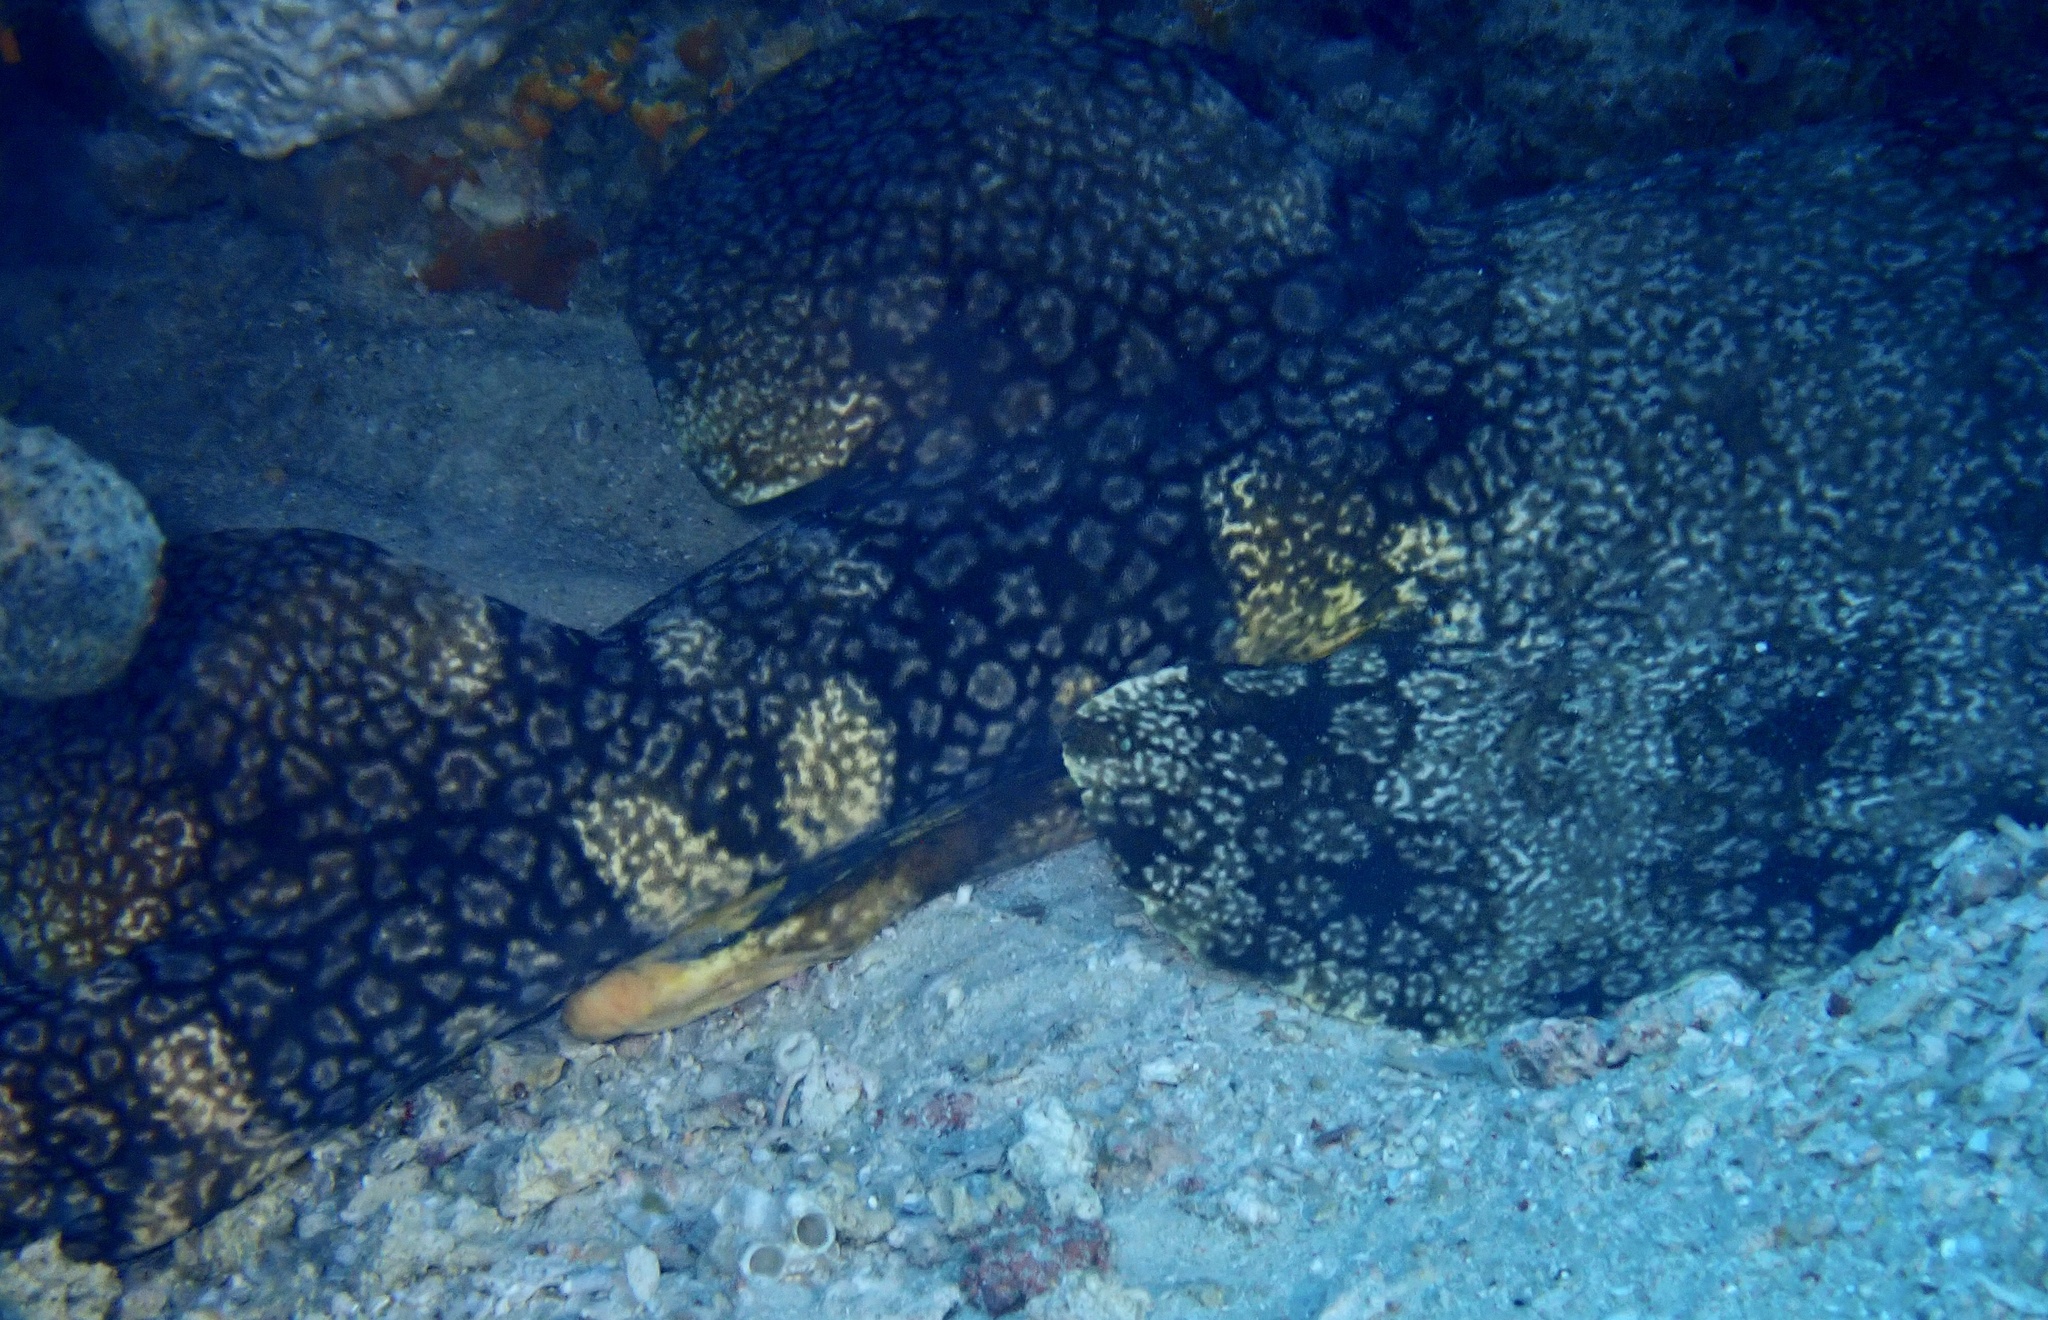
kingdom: Animalia
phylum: Chordata
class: Elasmobranchii
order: Orectolobiformes
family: Orectolobidae
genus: Eucrossorhinus
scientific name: Eucrossorhinus dasypogon
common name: Tasselled wobbegong
